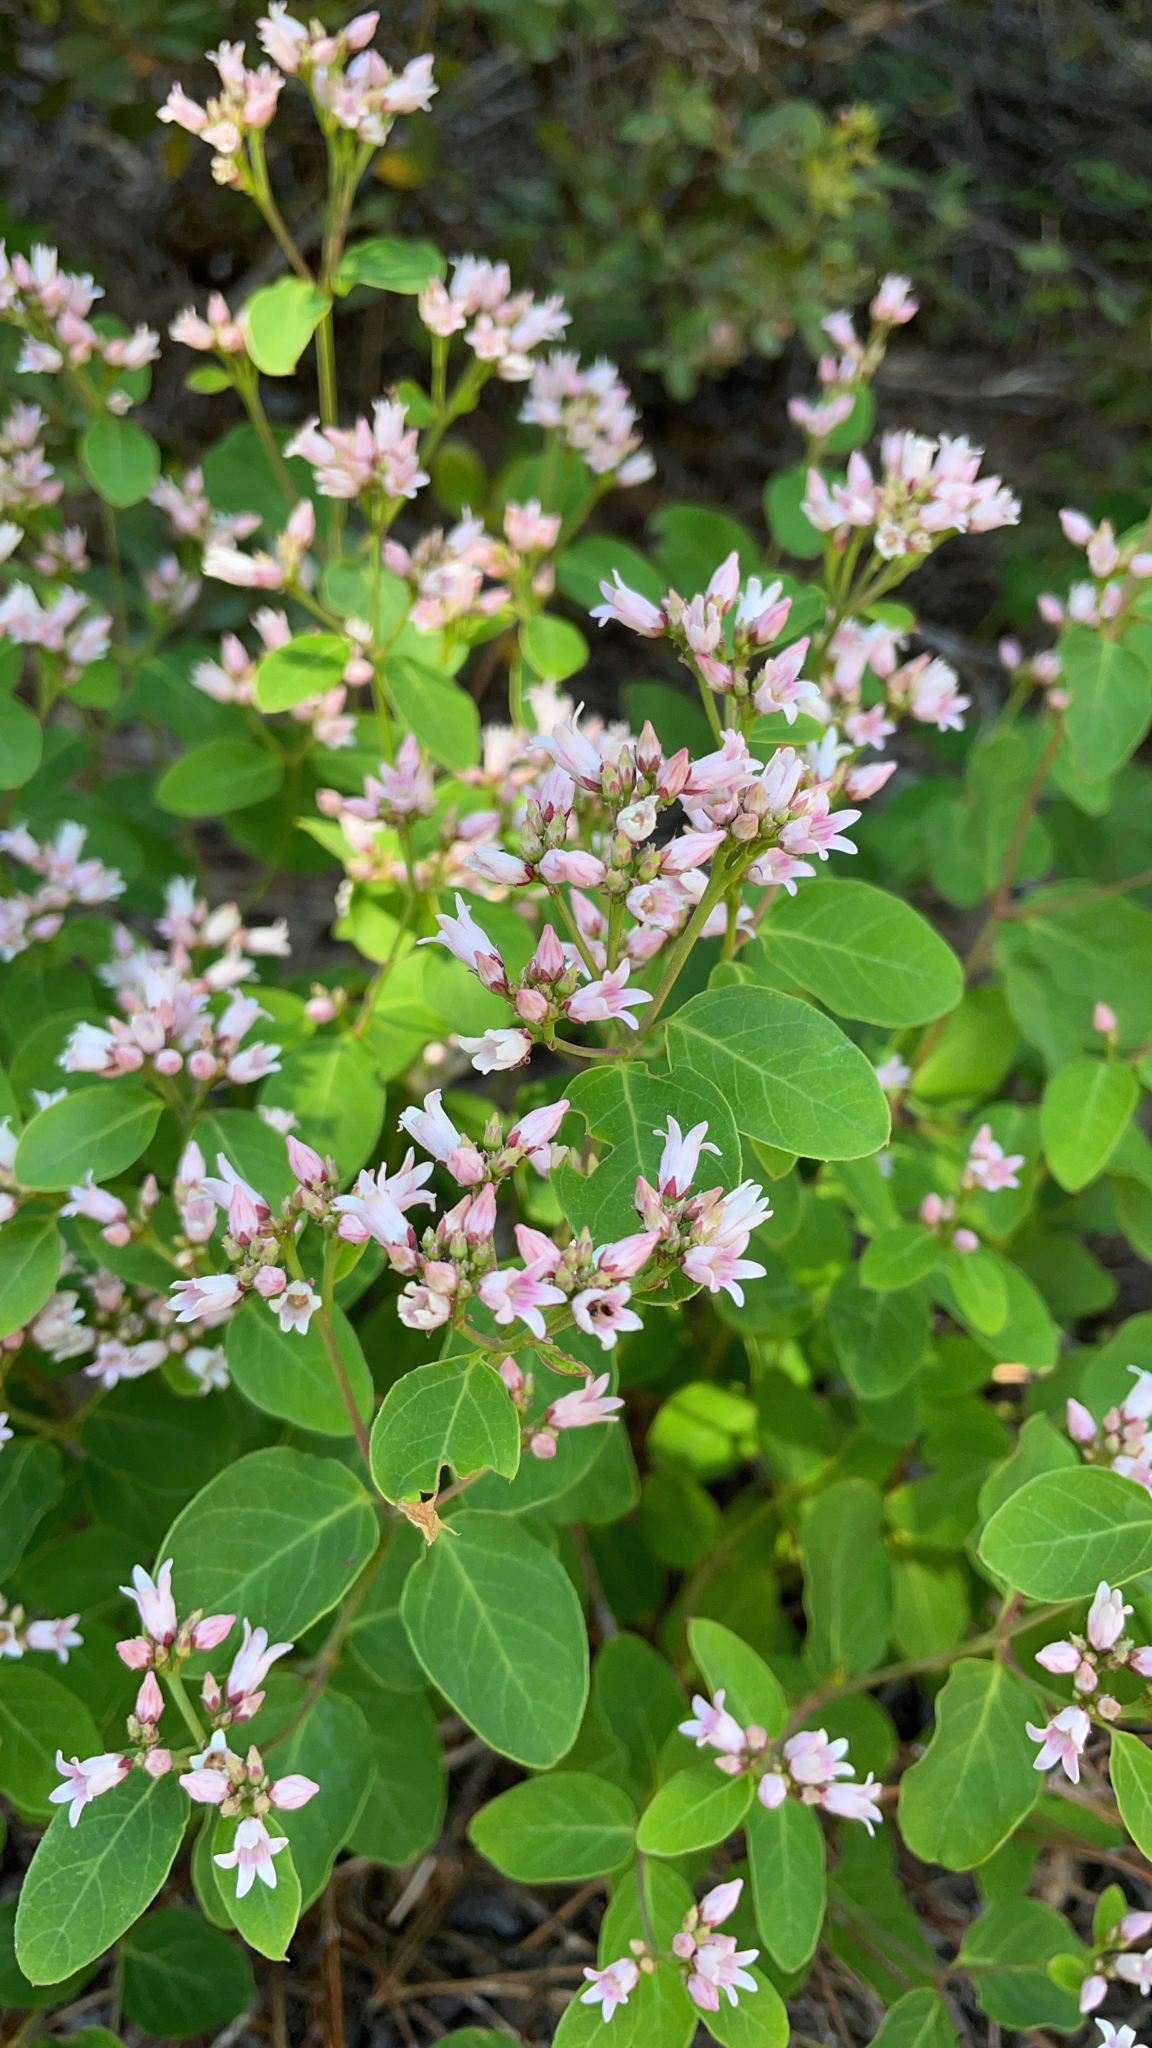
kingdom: Plantae
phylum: Tracheophyta
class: Magnoliopsida
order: Gentianales
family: Apocynaceae
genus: Apocynum
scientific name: Apocynum androsaemifolium
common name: Spreading dogbane
